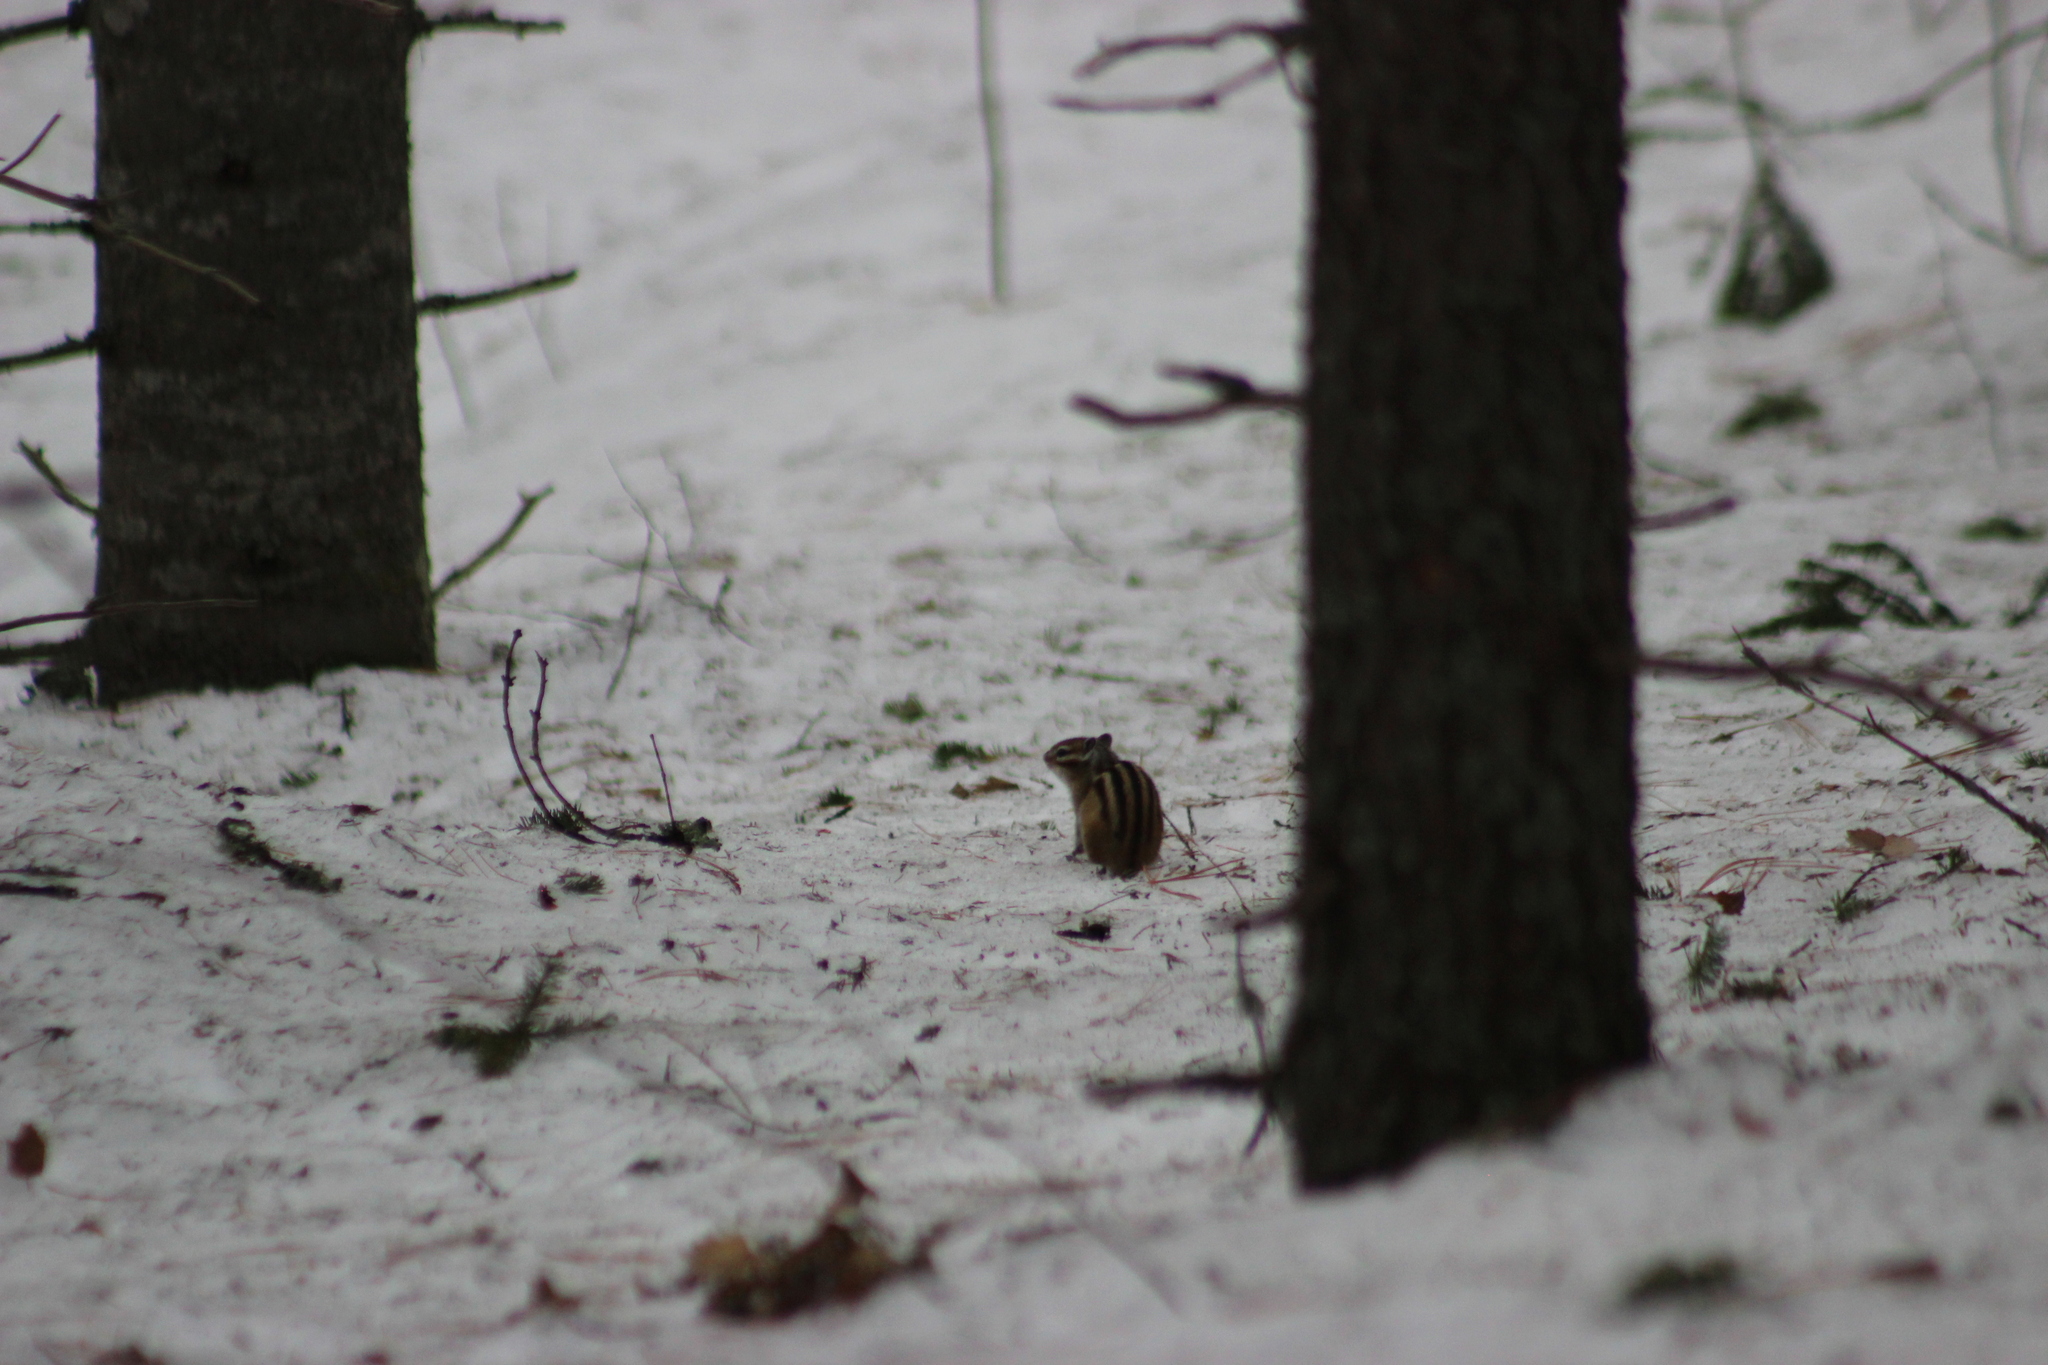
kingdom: Animalia
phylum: Chordata
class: Mammalia
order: Rodentia
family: Sciuridae
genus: Tamias
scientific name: Tamias sibiricus
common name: Siberian chipmunk
